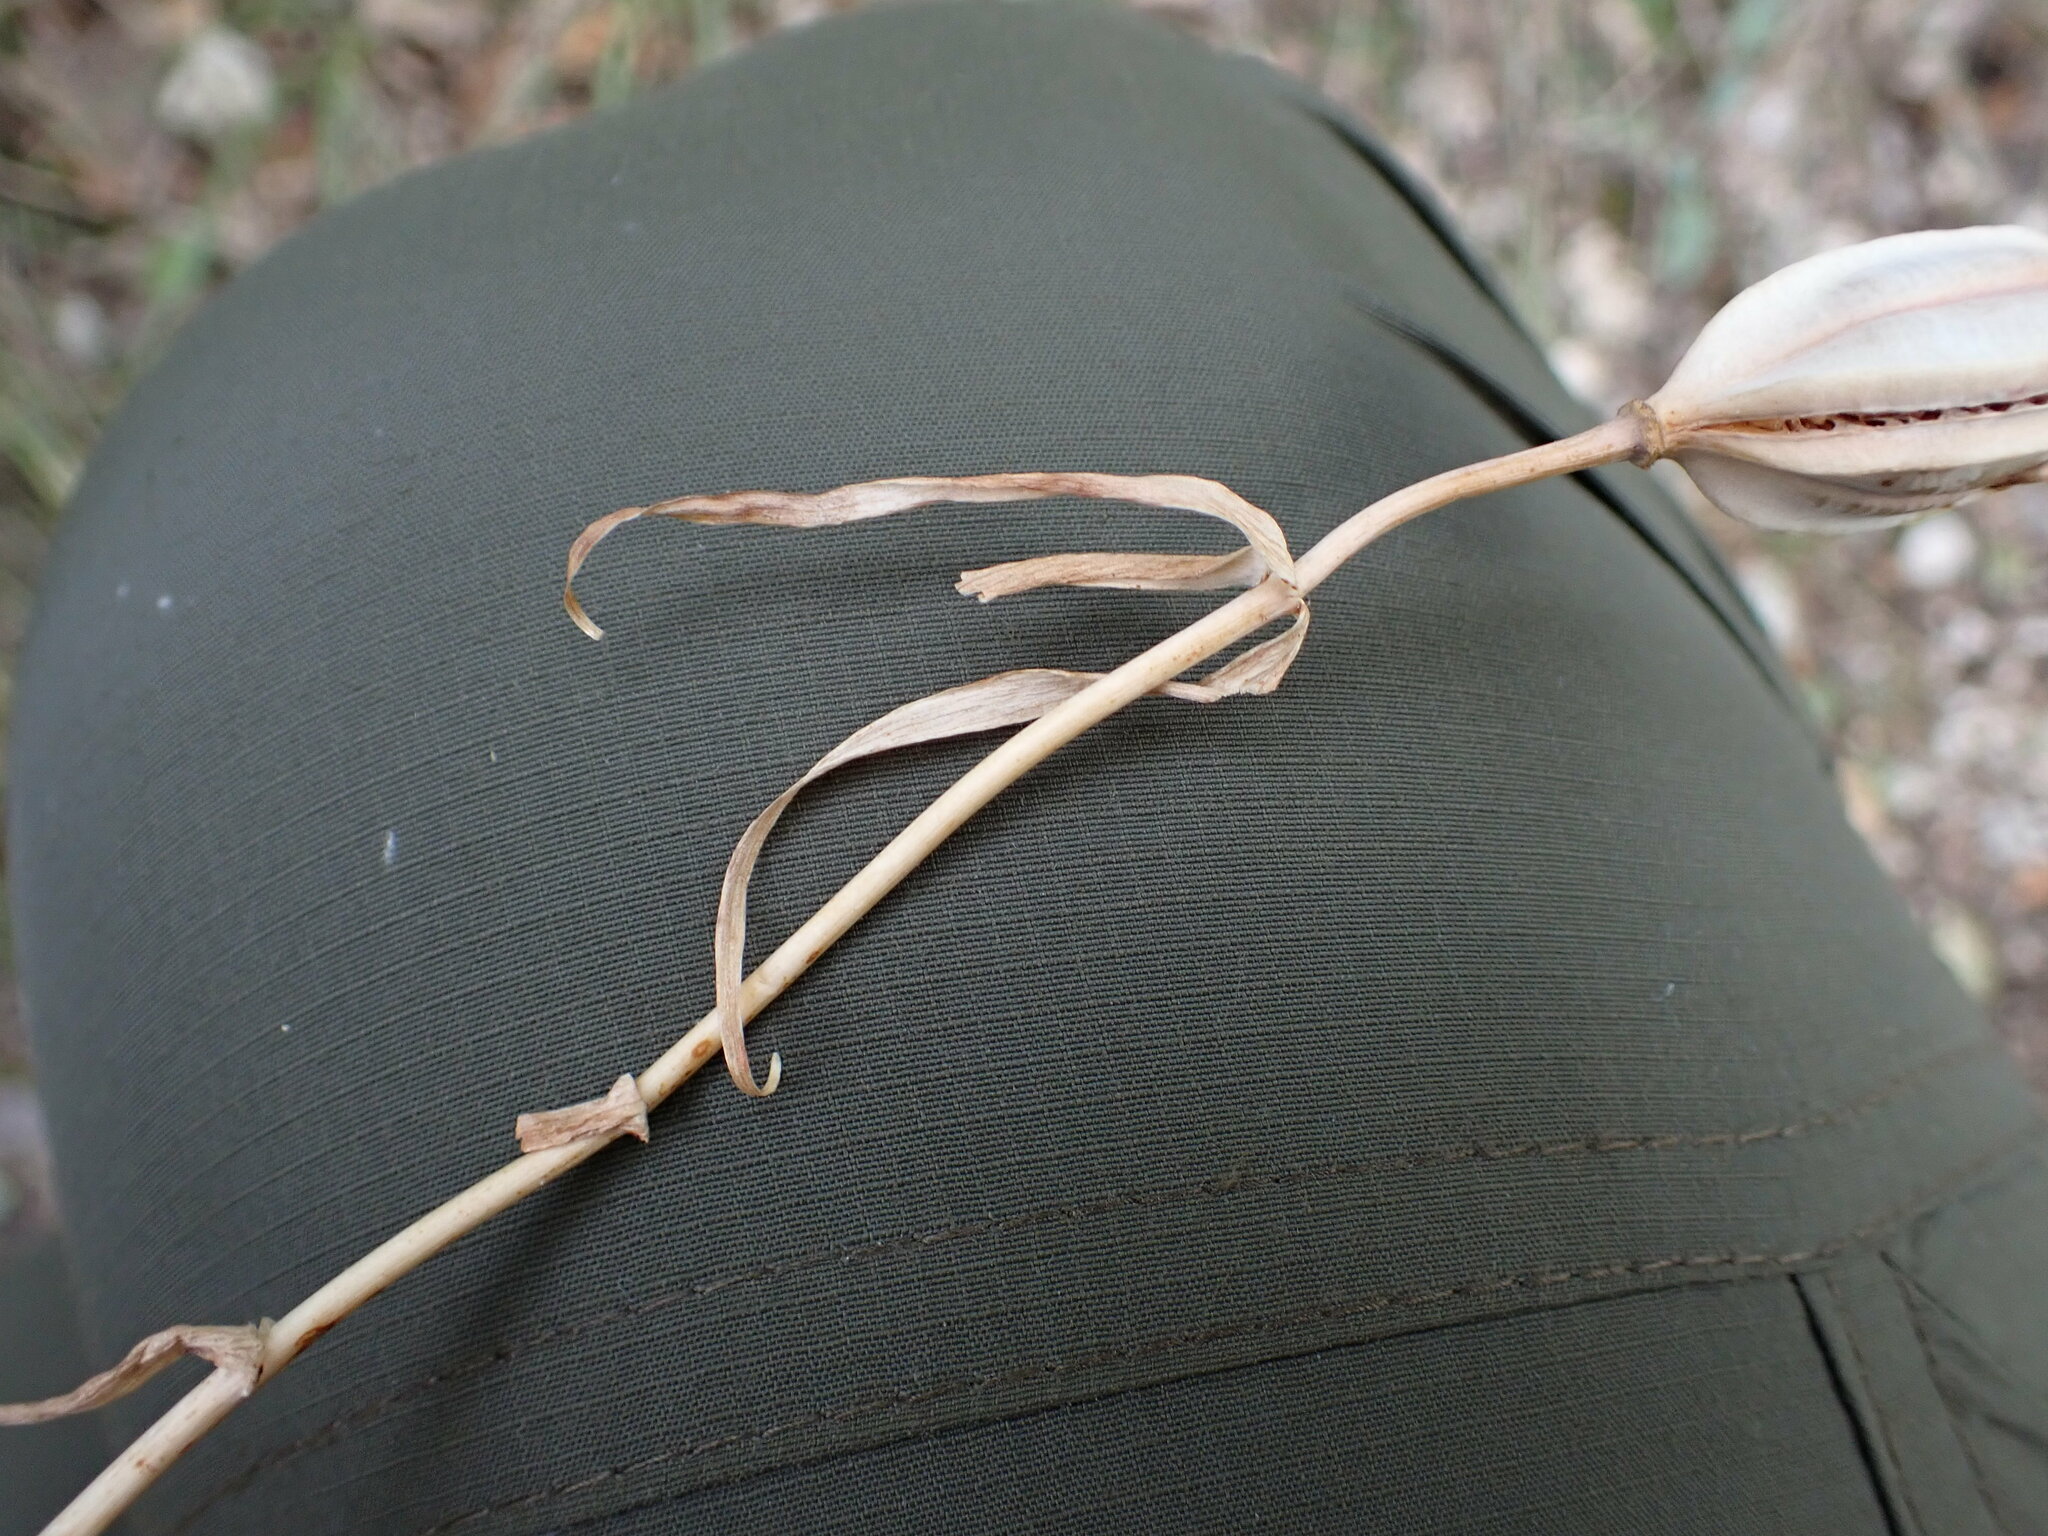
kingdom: Plantae
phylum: Tracheophyta
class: Liliopsida
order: Liliales
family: Liliaceae
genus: Fritillaria
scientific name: Fritillaria involucrata
